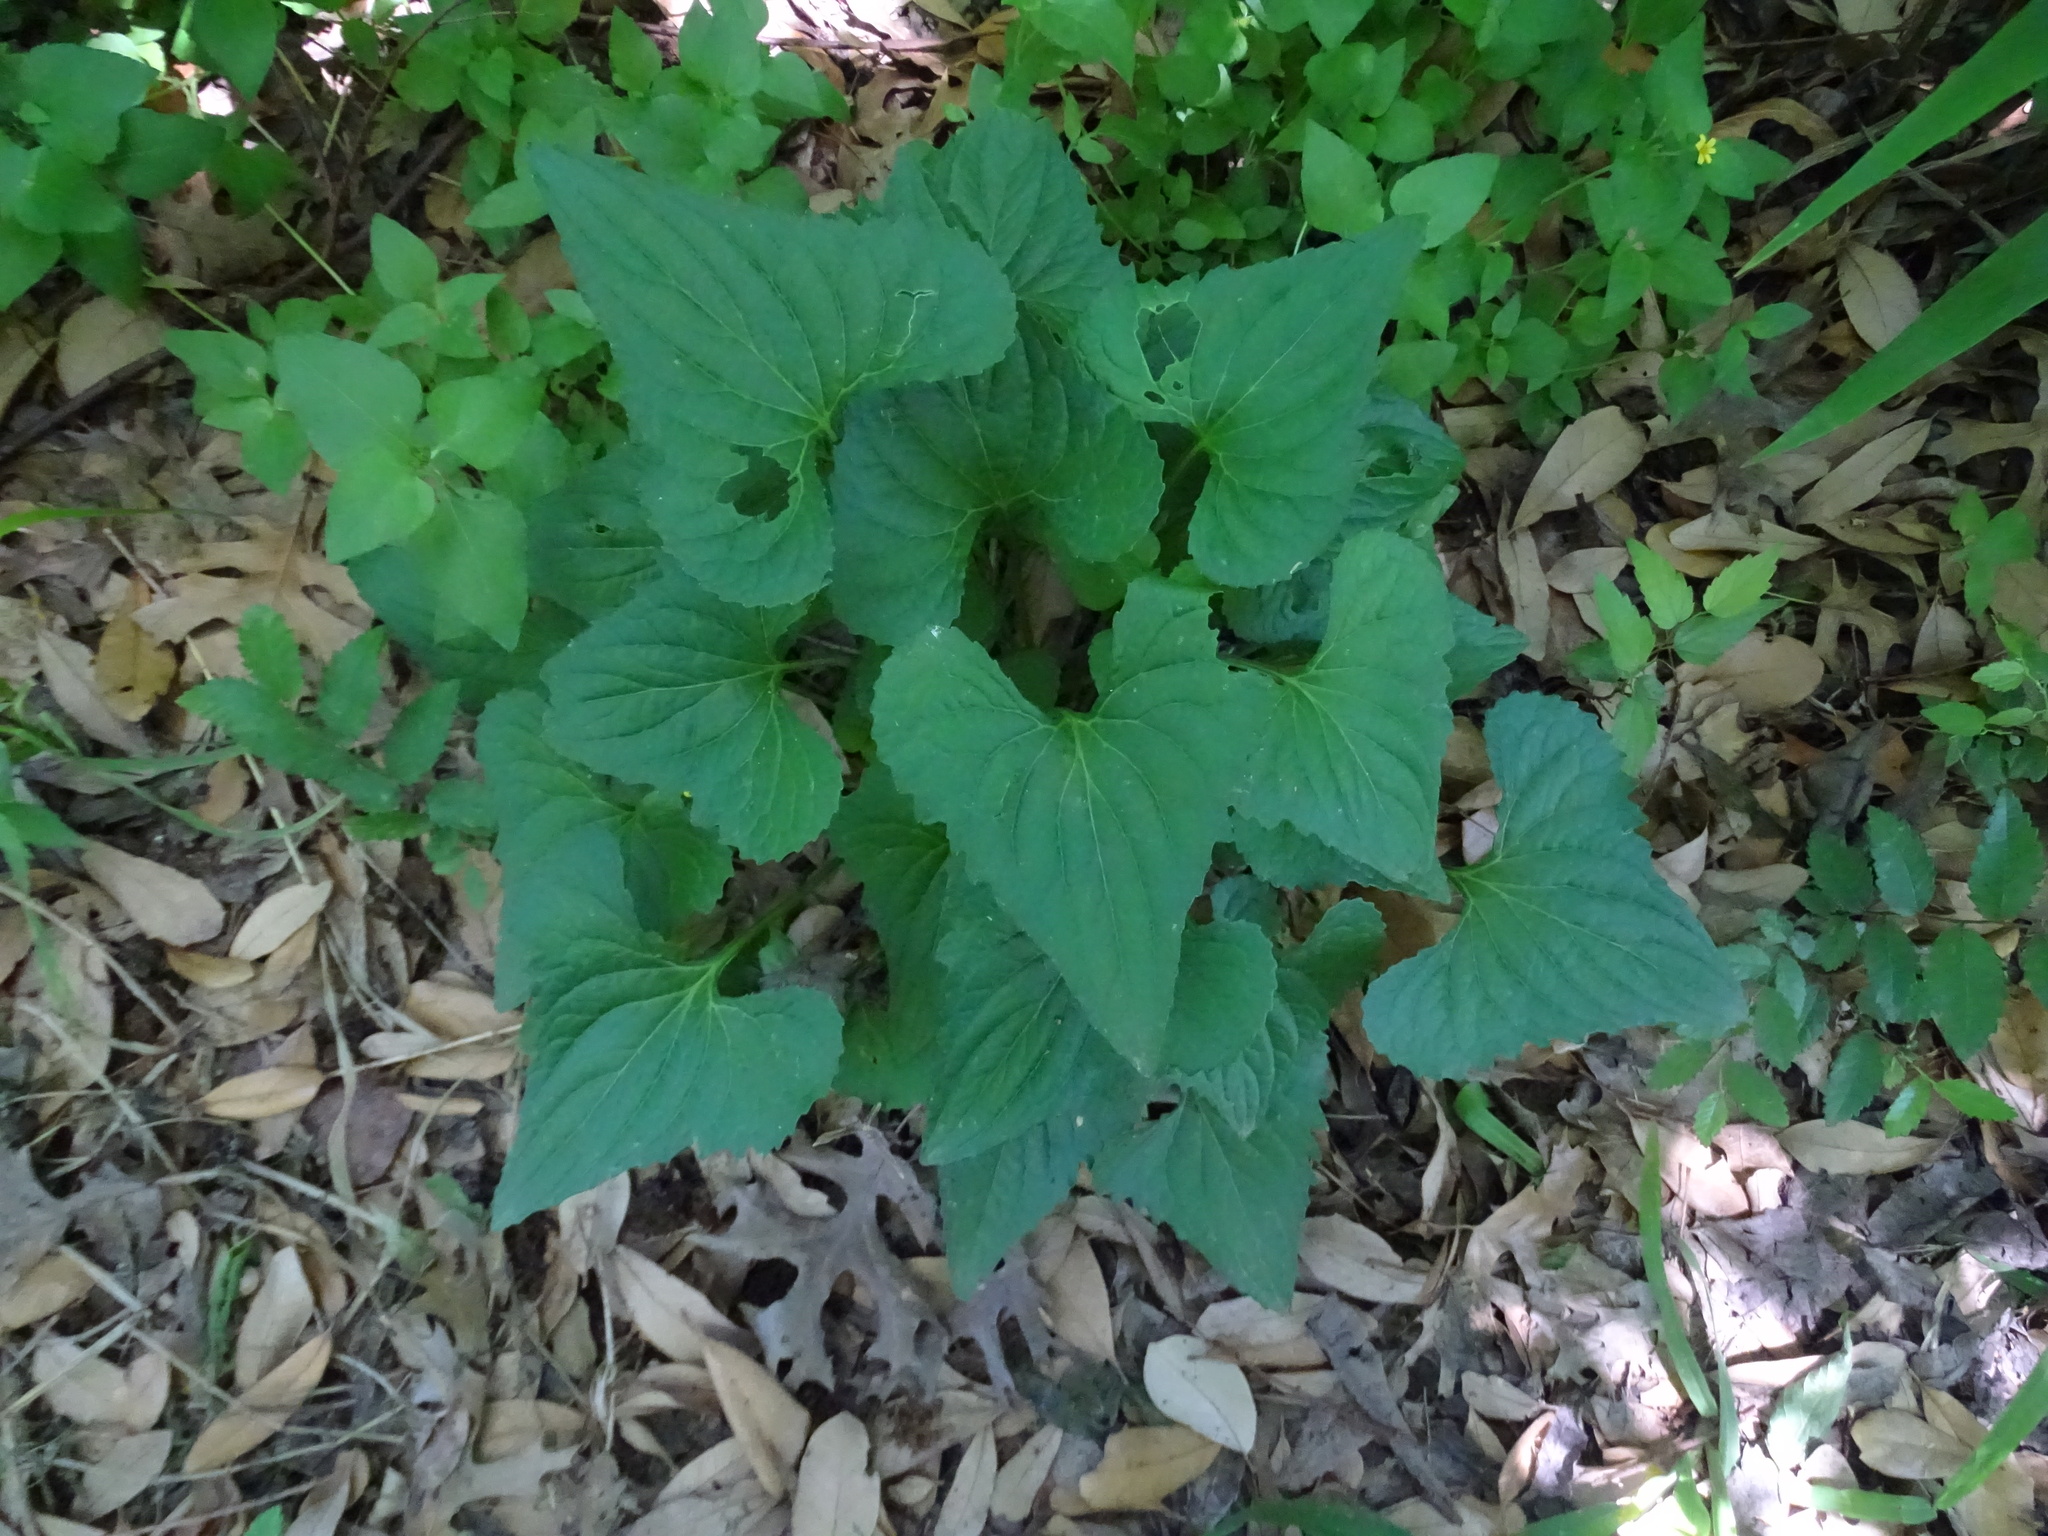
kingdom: Plantae
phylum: Tracheophyta
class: Magnoliopsida
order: Malpighiales
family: Violaceae
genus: Viola
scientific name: Viola missouriensis
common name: Missouri violet
